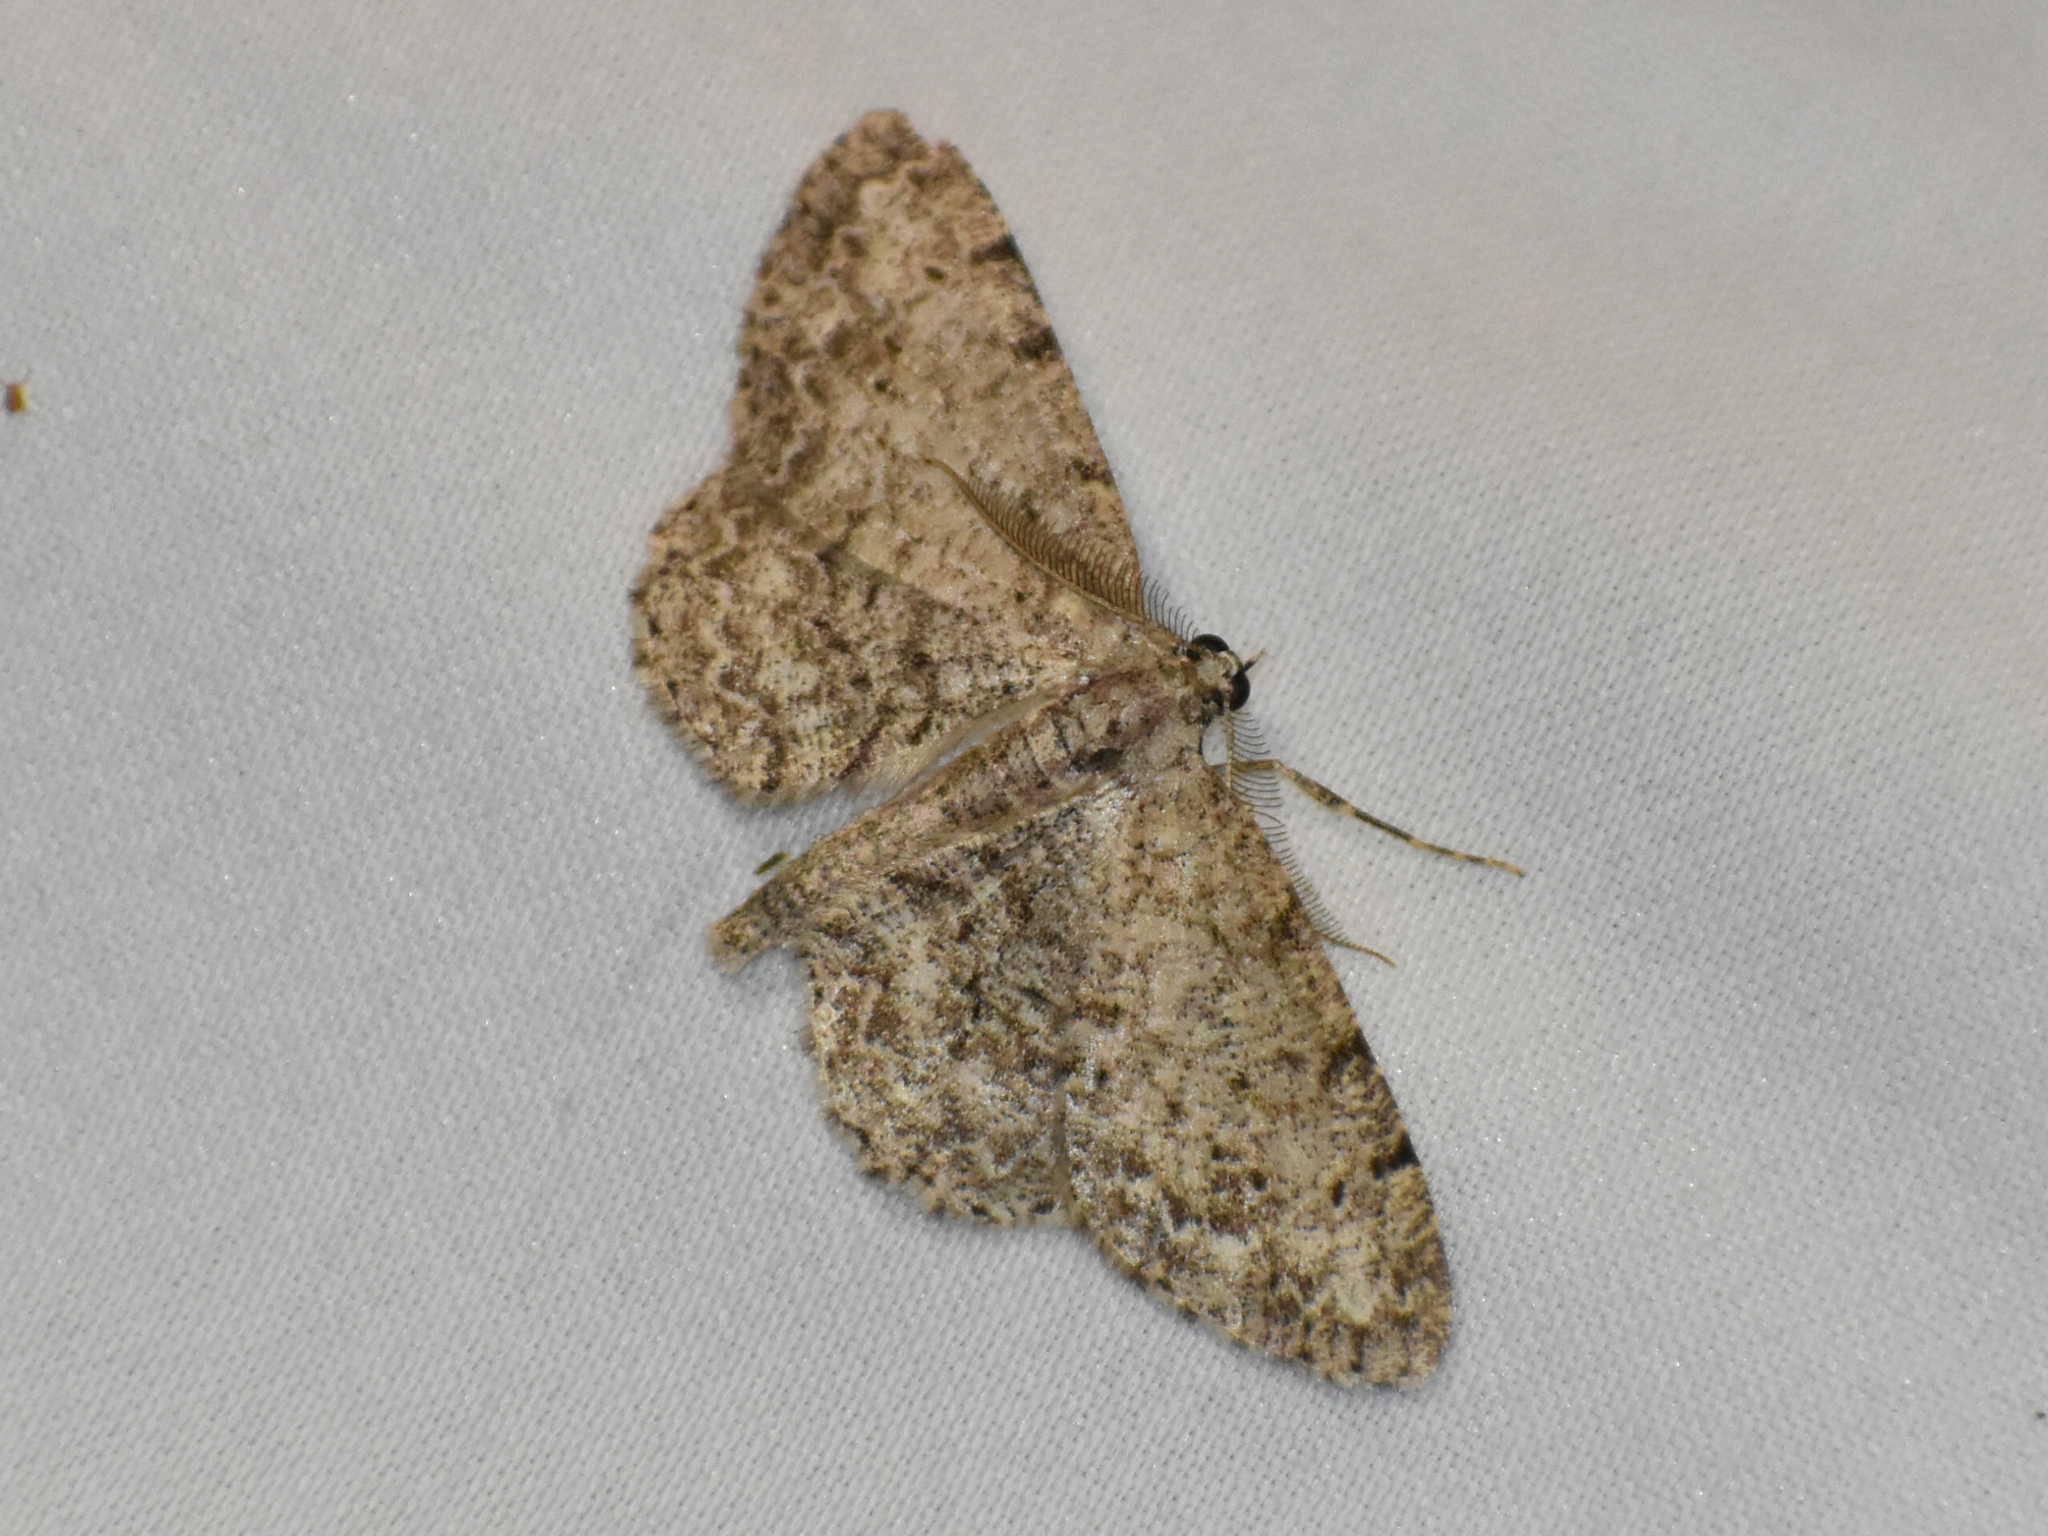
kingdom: Animalia
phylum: Arthropoda
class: Insecta
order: Lepidoptera
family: Geometridae
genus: Protoboarmia
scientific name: Protoboarmia porcelaria
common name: Porcelain gray
